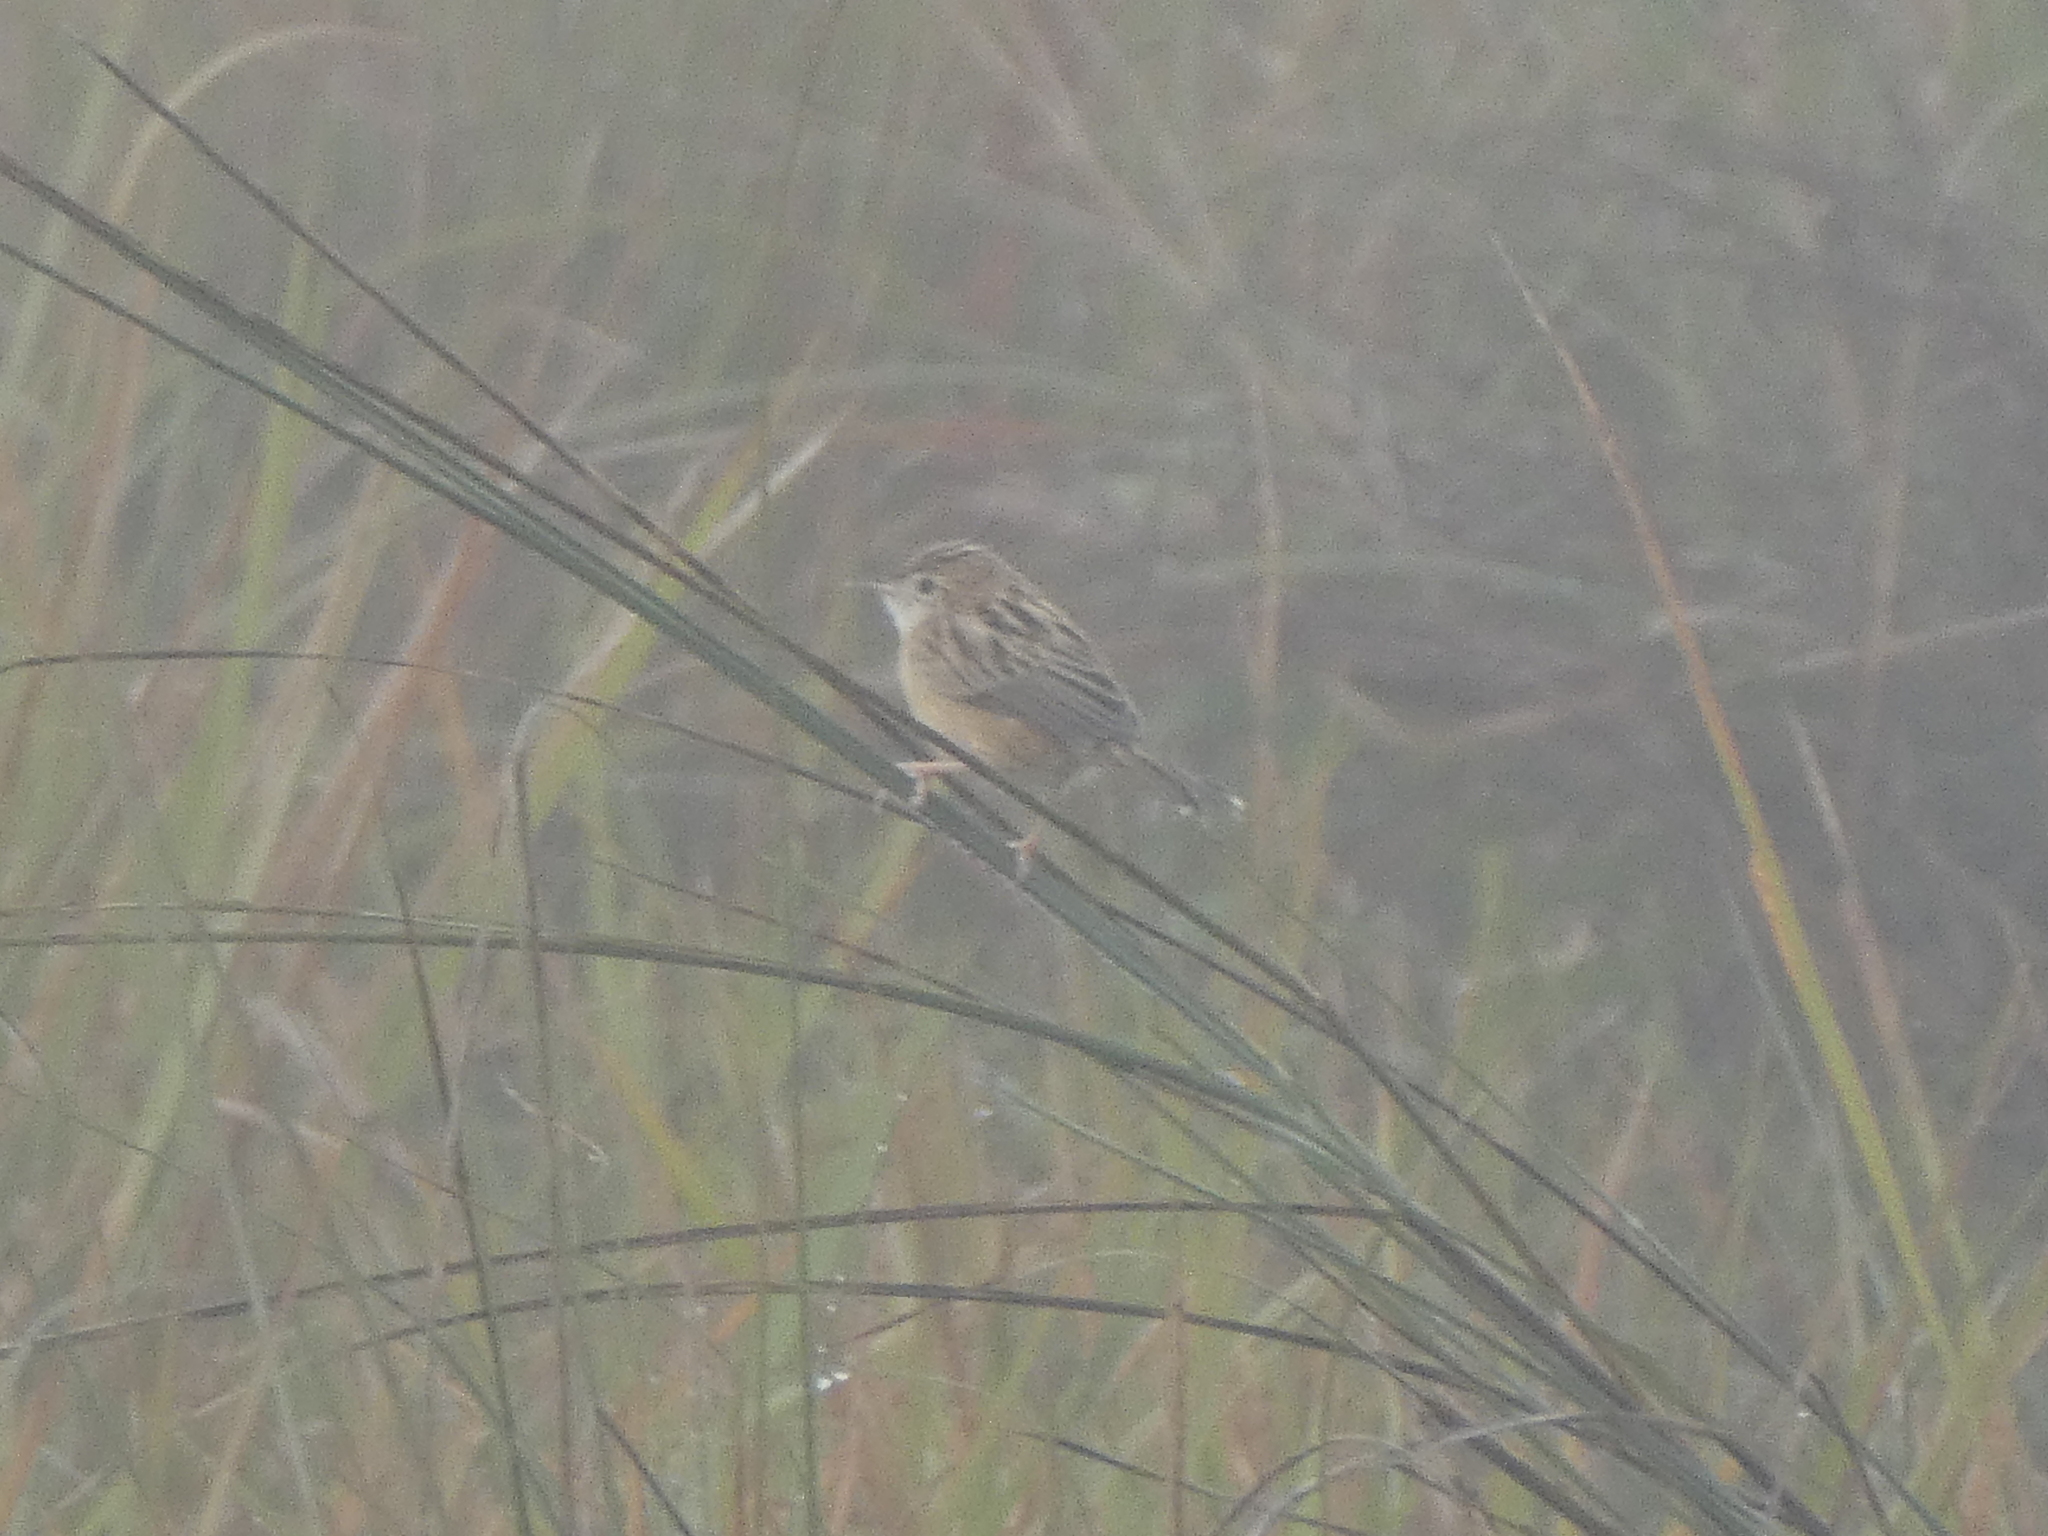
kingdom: Animalia
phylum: Chordata
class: Aves
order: Passeriformes
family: Cisticolidae
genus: Cisticola
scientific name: Cisticola juncidis
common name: Zitting cisticola
